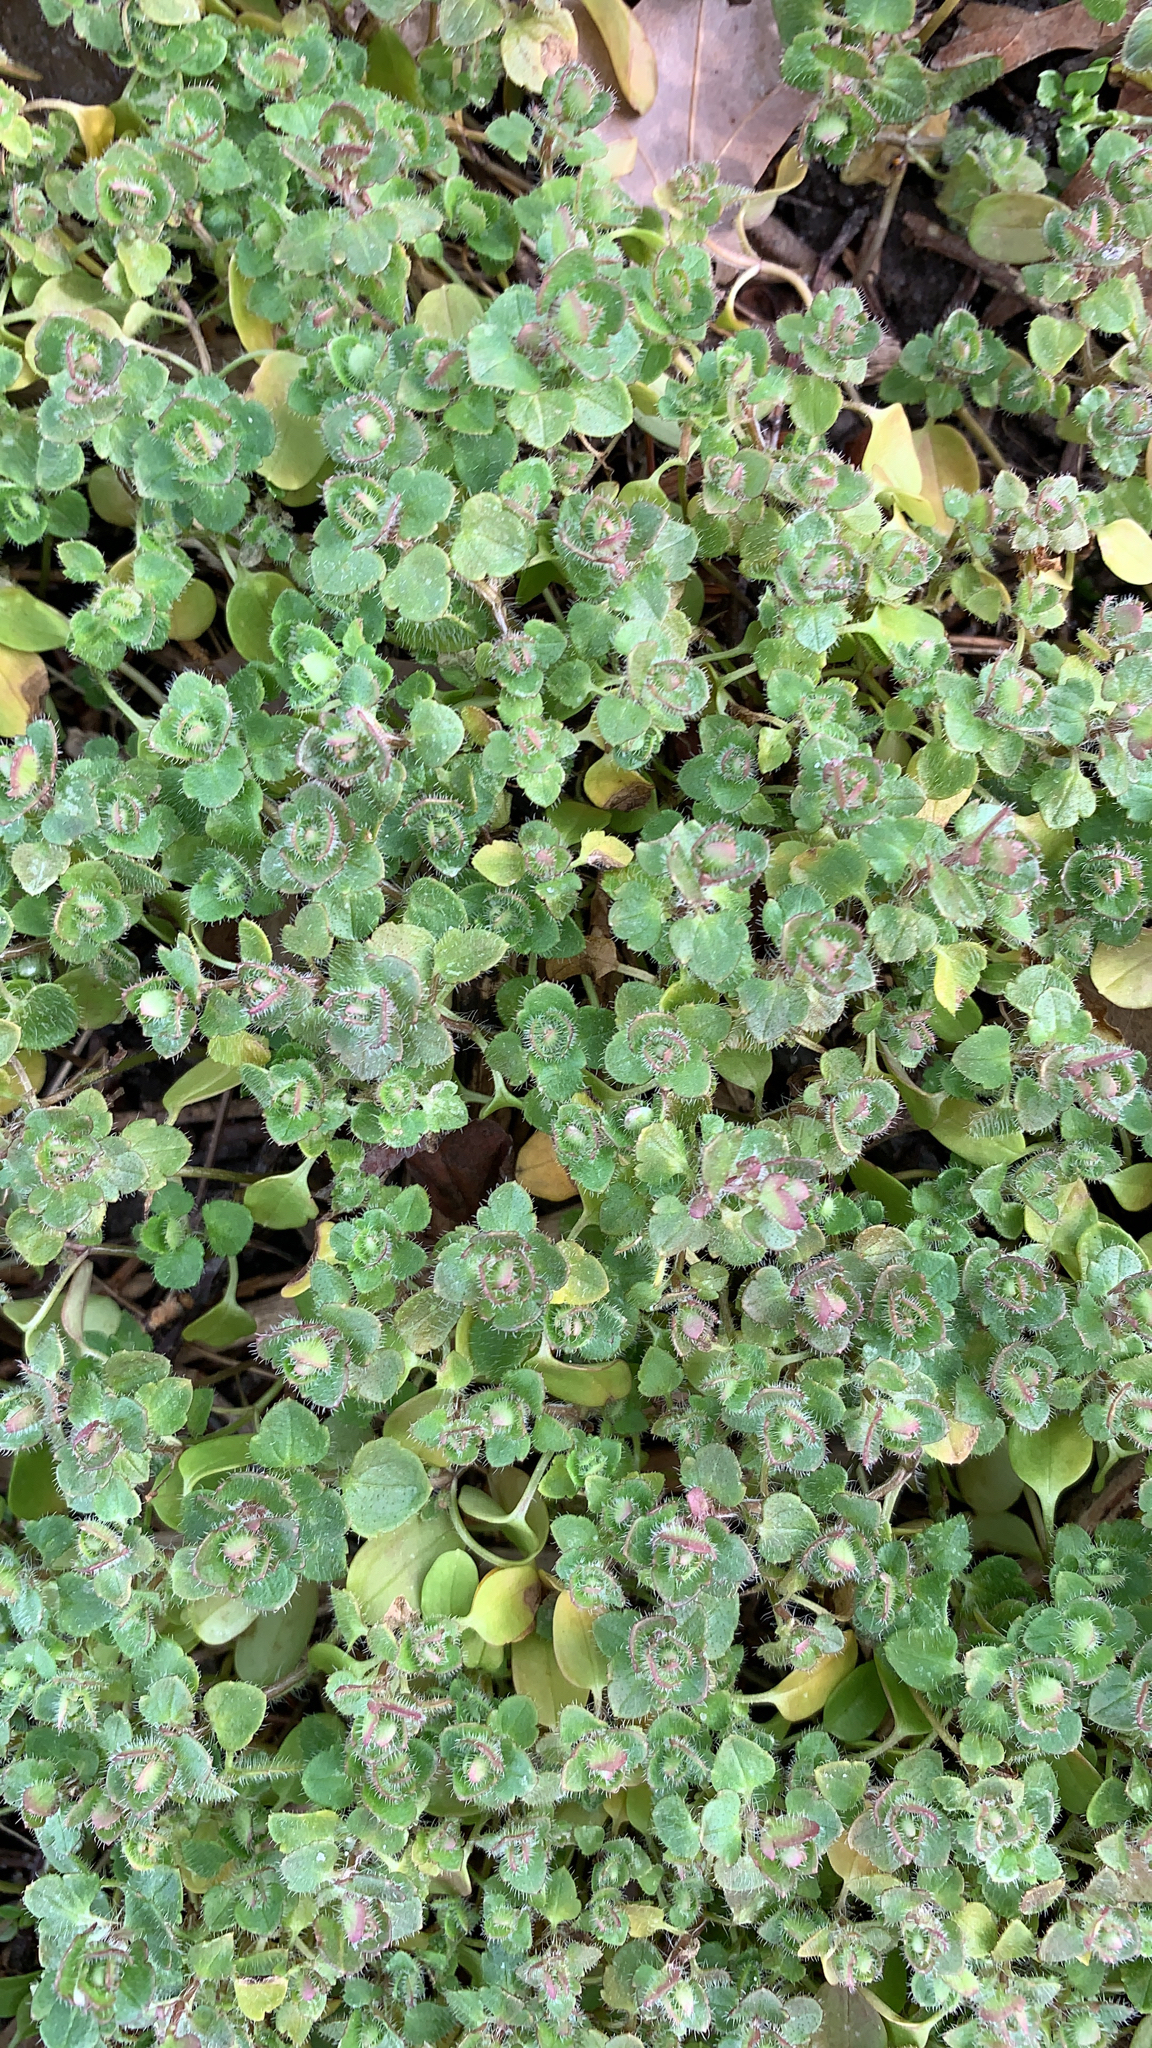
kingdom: Plantae
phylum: Tracheophyta
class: Magnoliopsida
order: Lamiales
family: Plantaginaceae
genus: Veronica
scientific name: Veronica hederifolia
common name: Ivy-leaved speedwell
